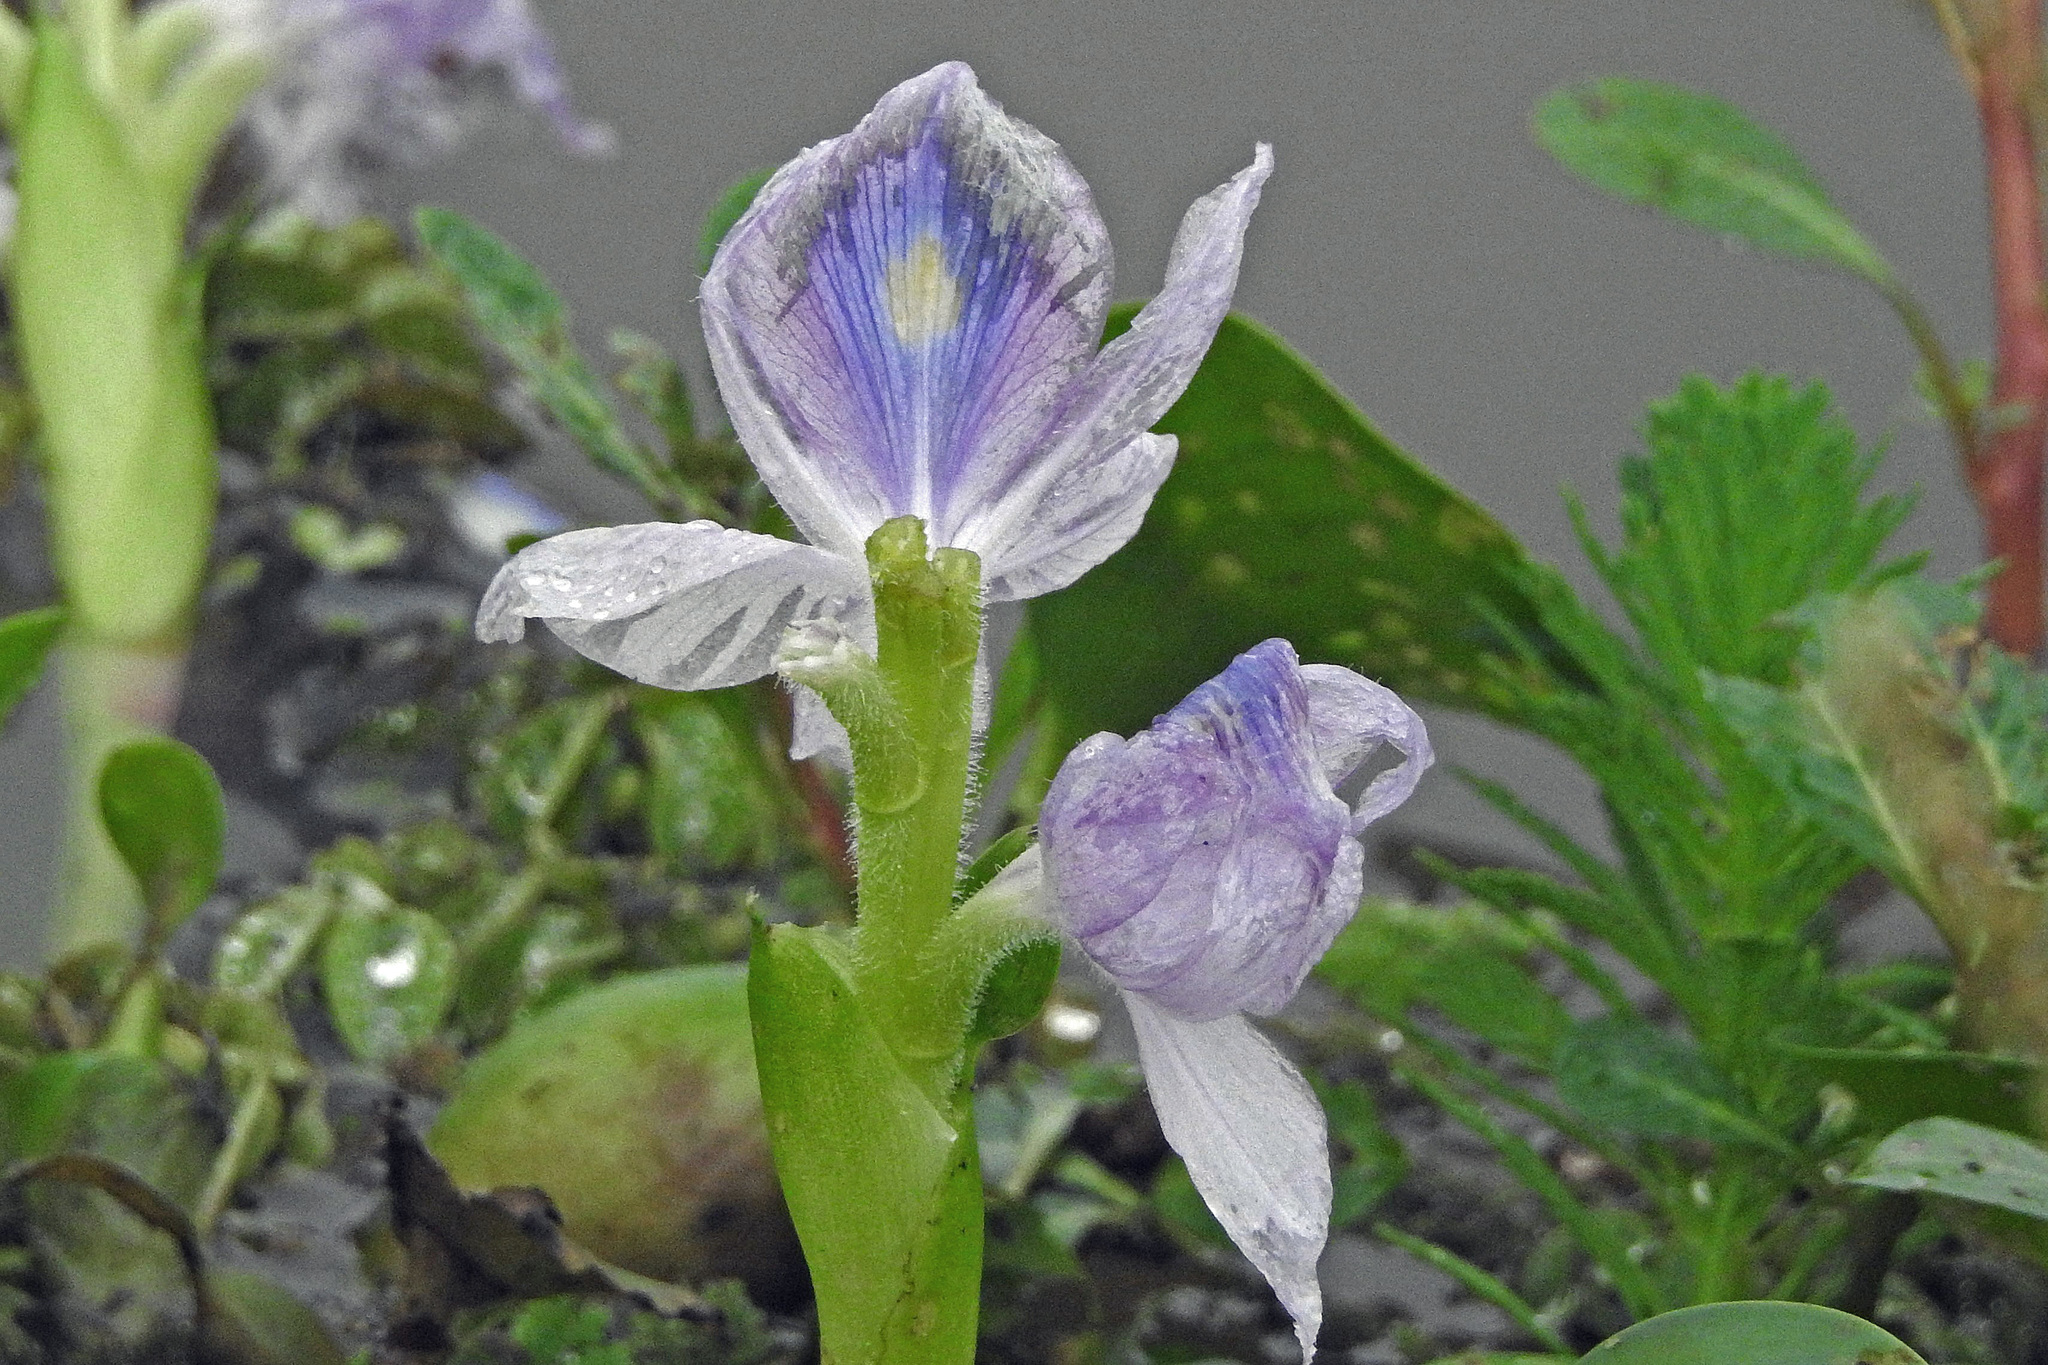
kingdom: Plantae
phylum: Tracheophyta
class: Liliopsida
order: Commelinales
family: Pontederiaceae
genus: Pontederia
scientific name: Pontederia crassipes
